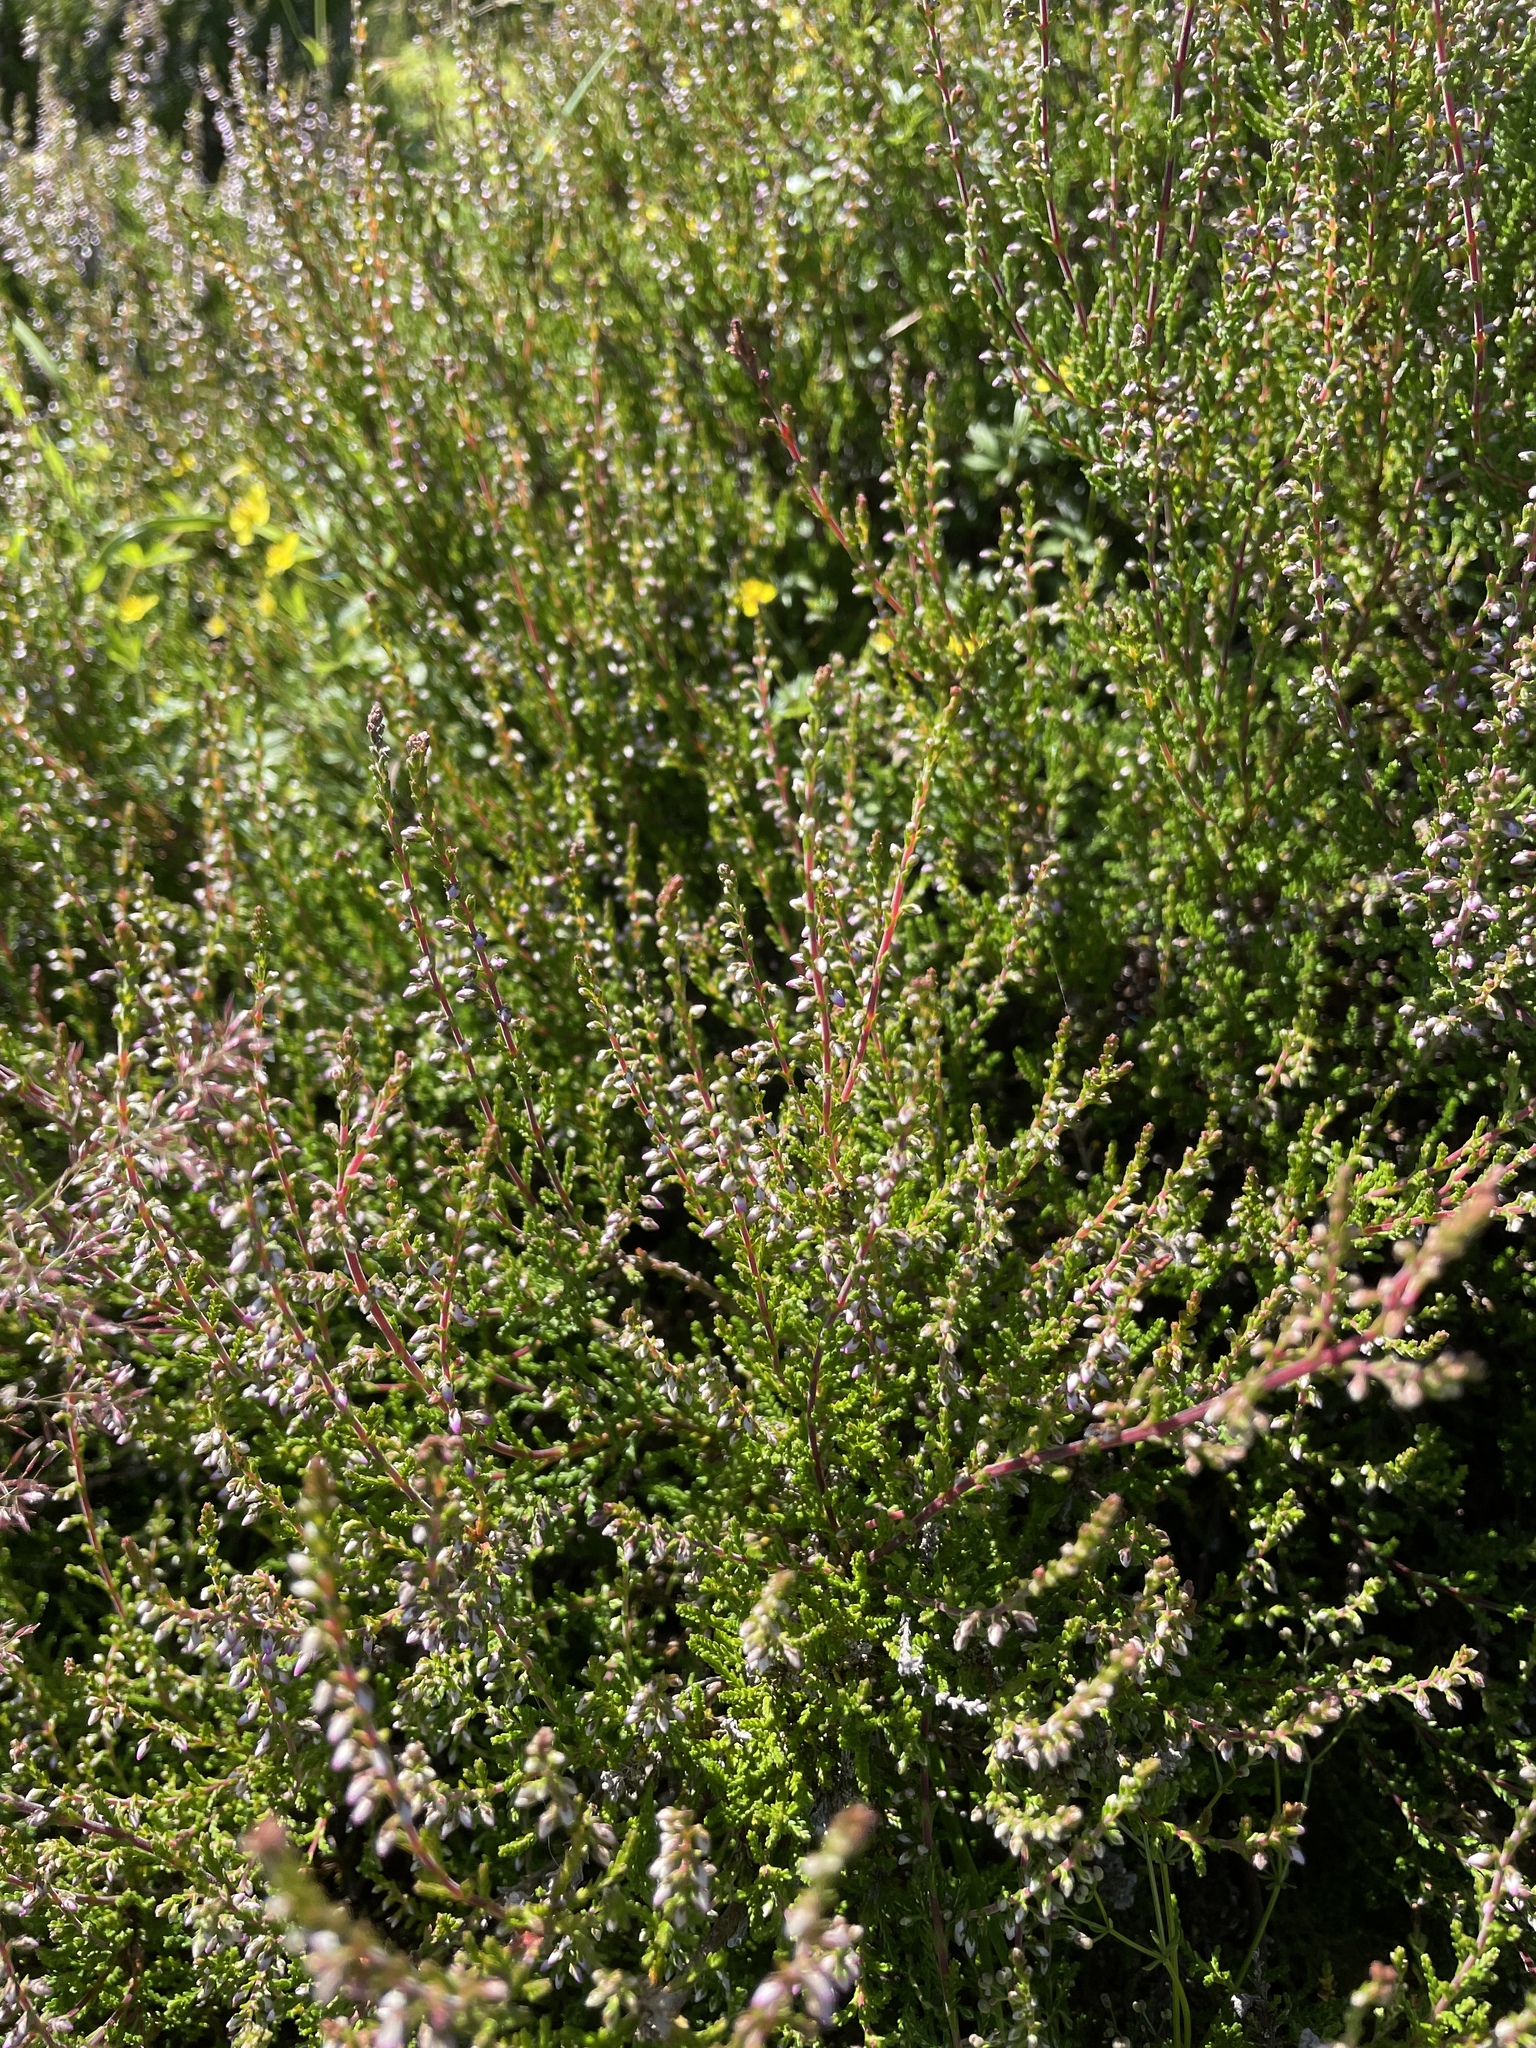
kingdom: Plantae
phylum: Tracheophyta
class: Magnoliopsida
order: Ericales
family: Ericaceae
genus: Calluna
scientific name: Calluna vulgaris
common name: Heather
